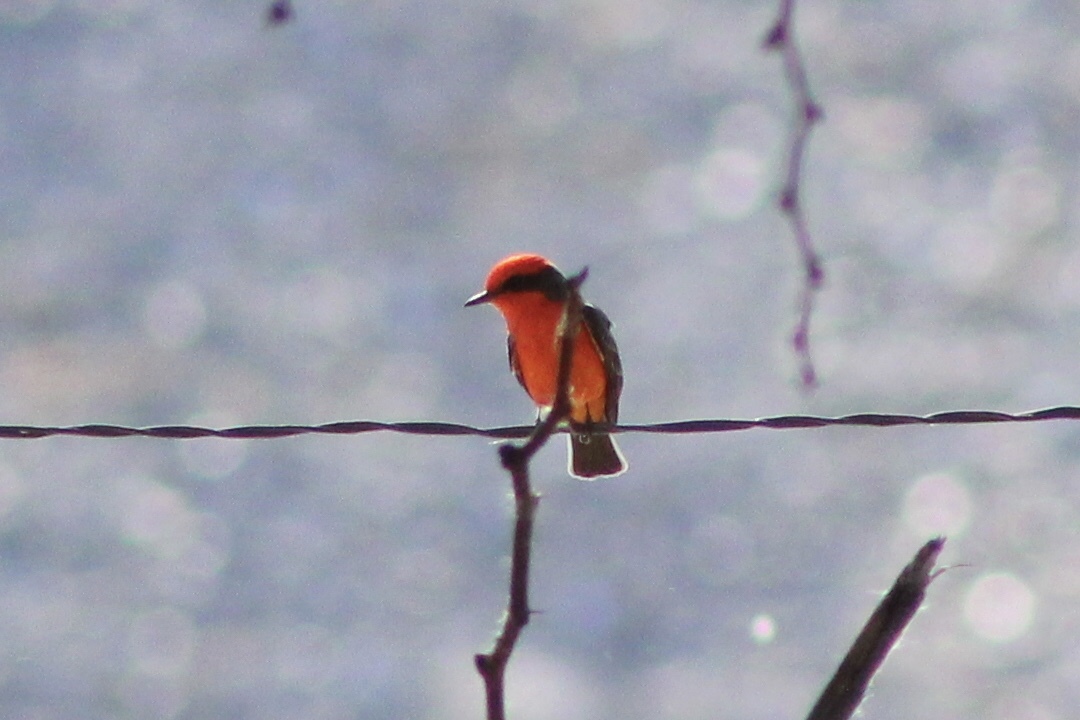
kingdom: Animalia
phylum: Chordata
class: Aves
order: Passeriformes
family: Tyrannidae
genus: Pyrocephalus
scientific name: Pyrocephalus rubinus
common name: Vermilion flycatcher
